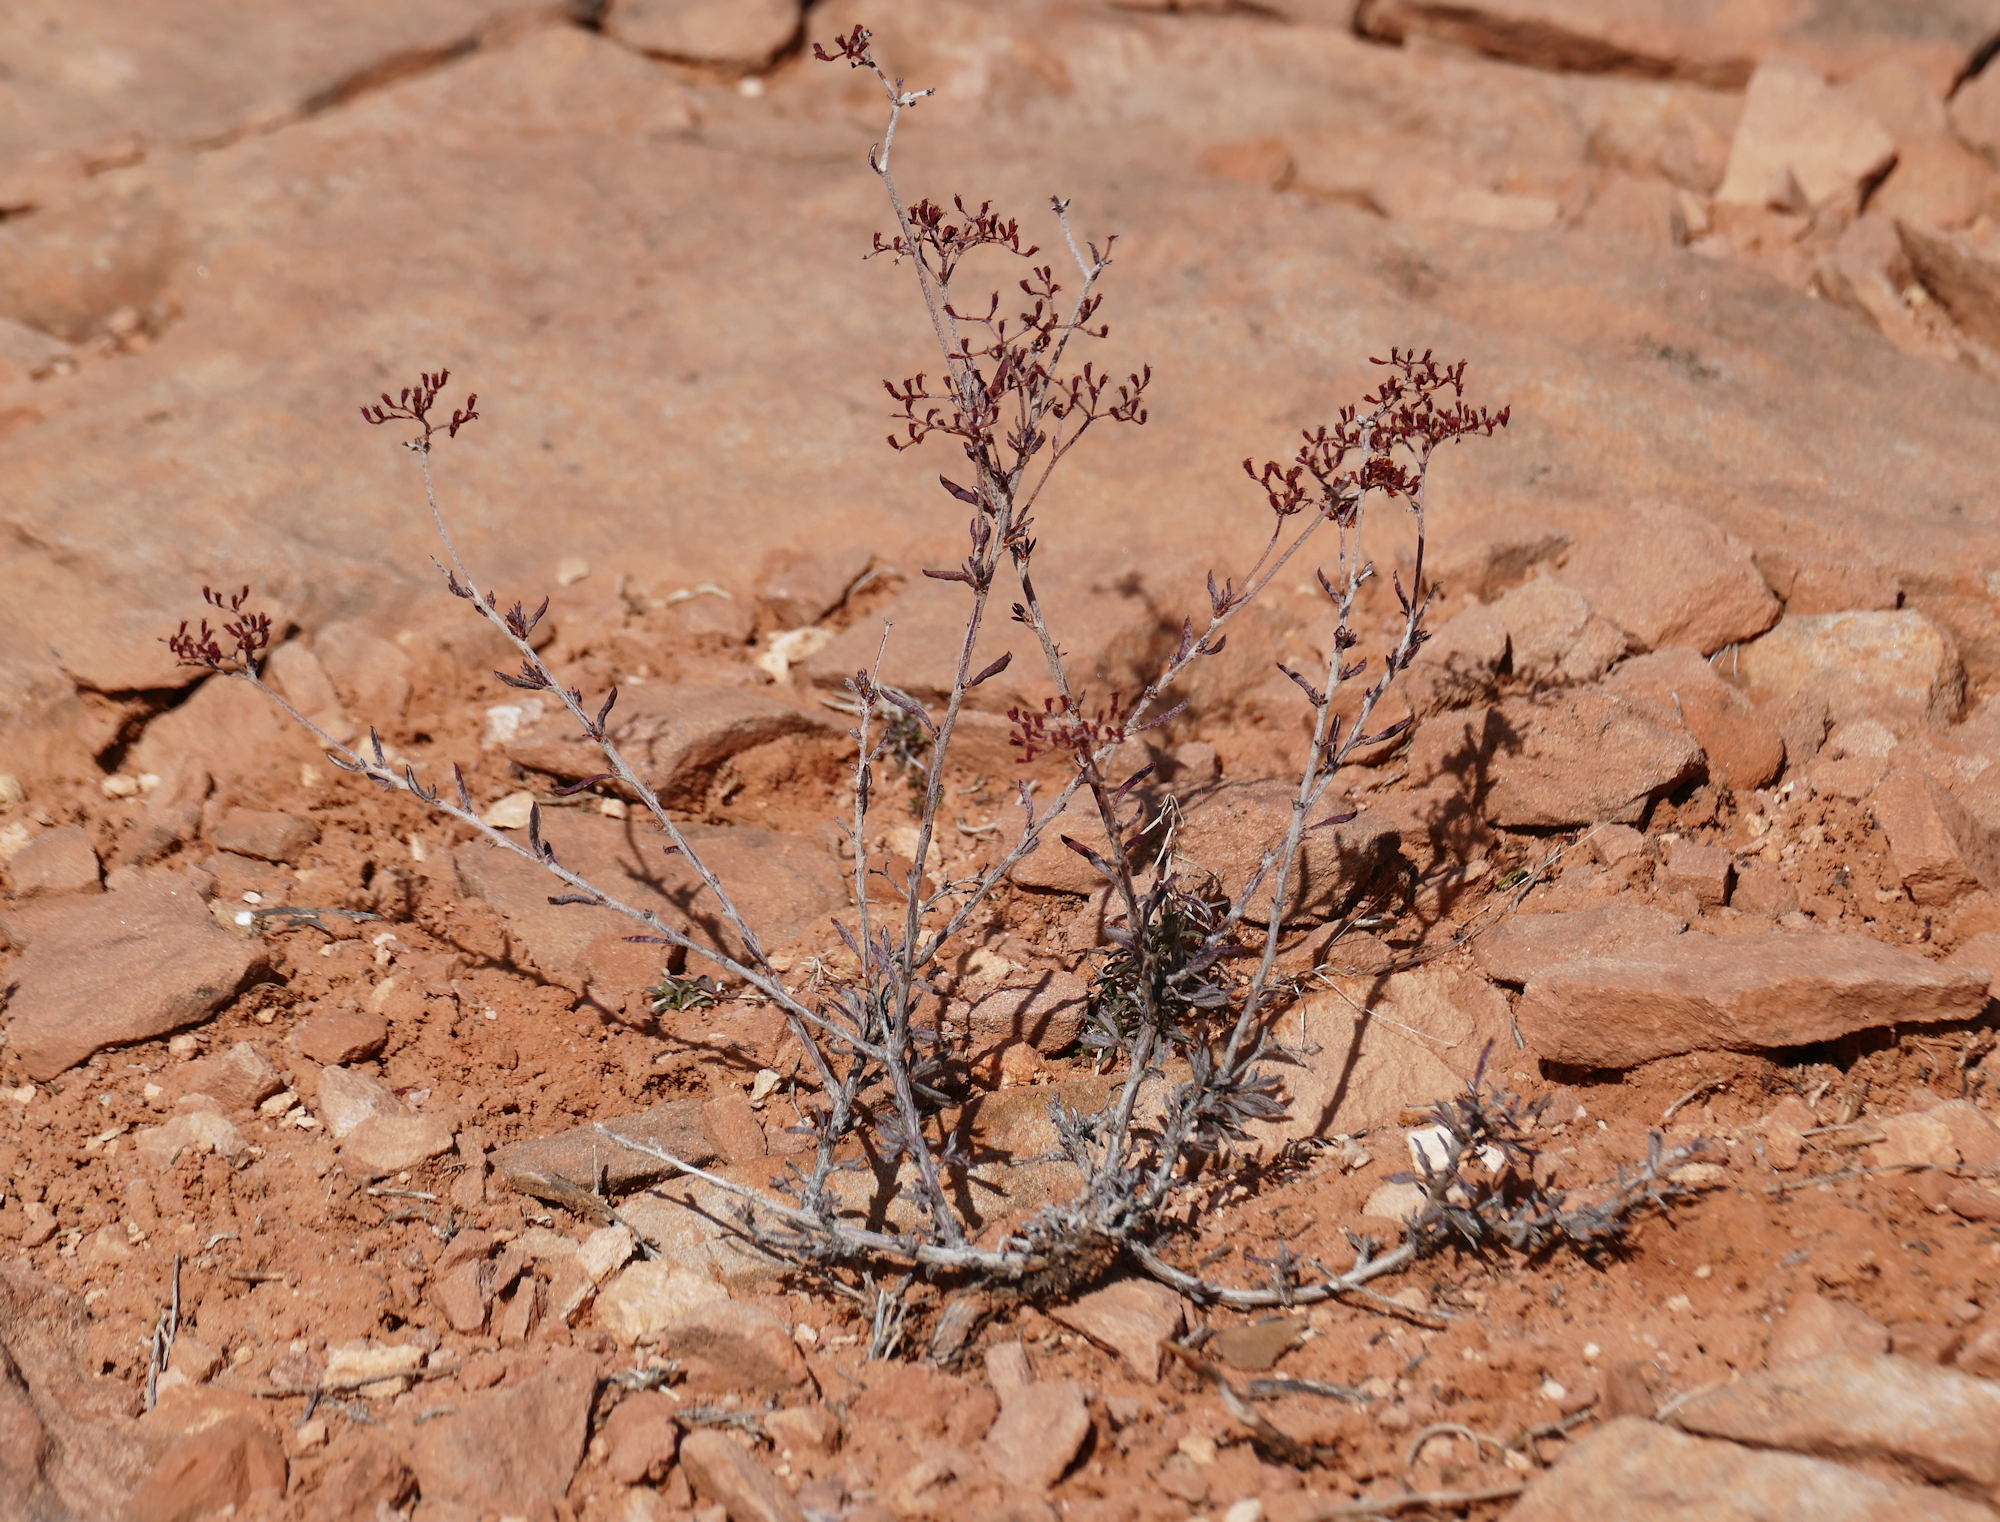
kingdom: Plantae
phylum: Tracheophyta
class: Magnoliopsida
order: Caryophyllales
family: Polygonaceae
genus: Eriogonum
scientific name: Eriogonum microtheca
